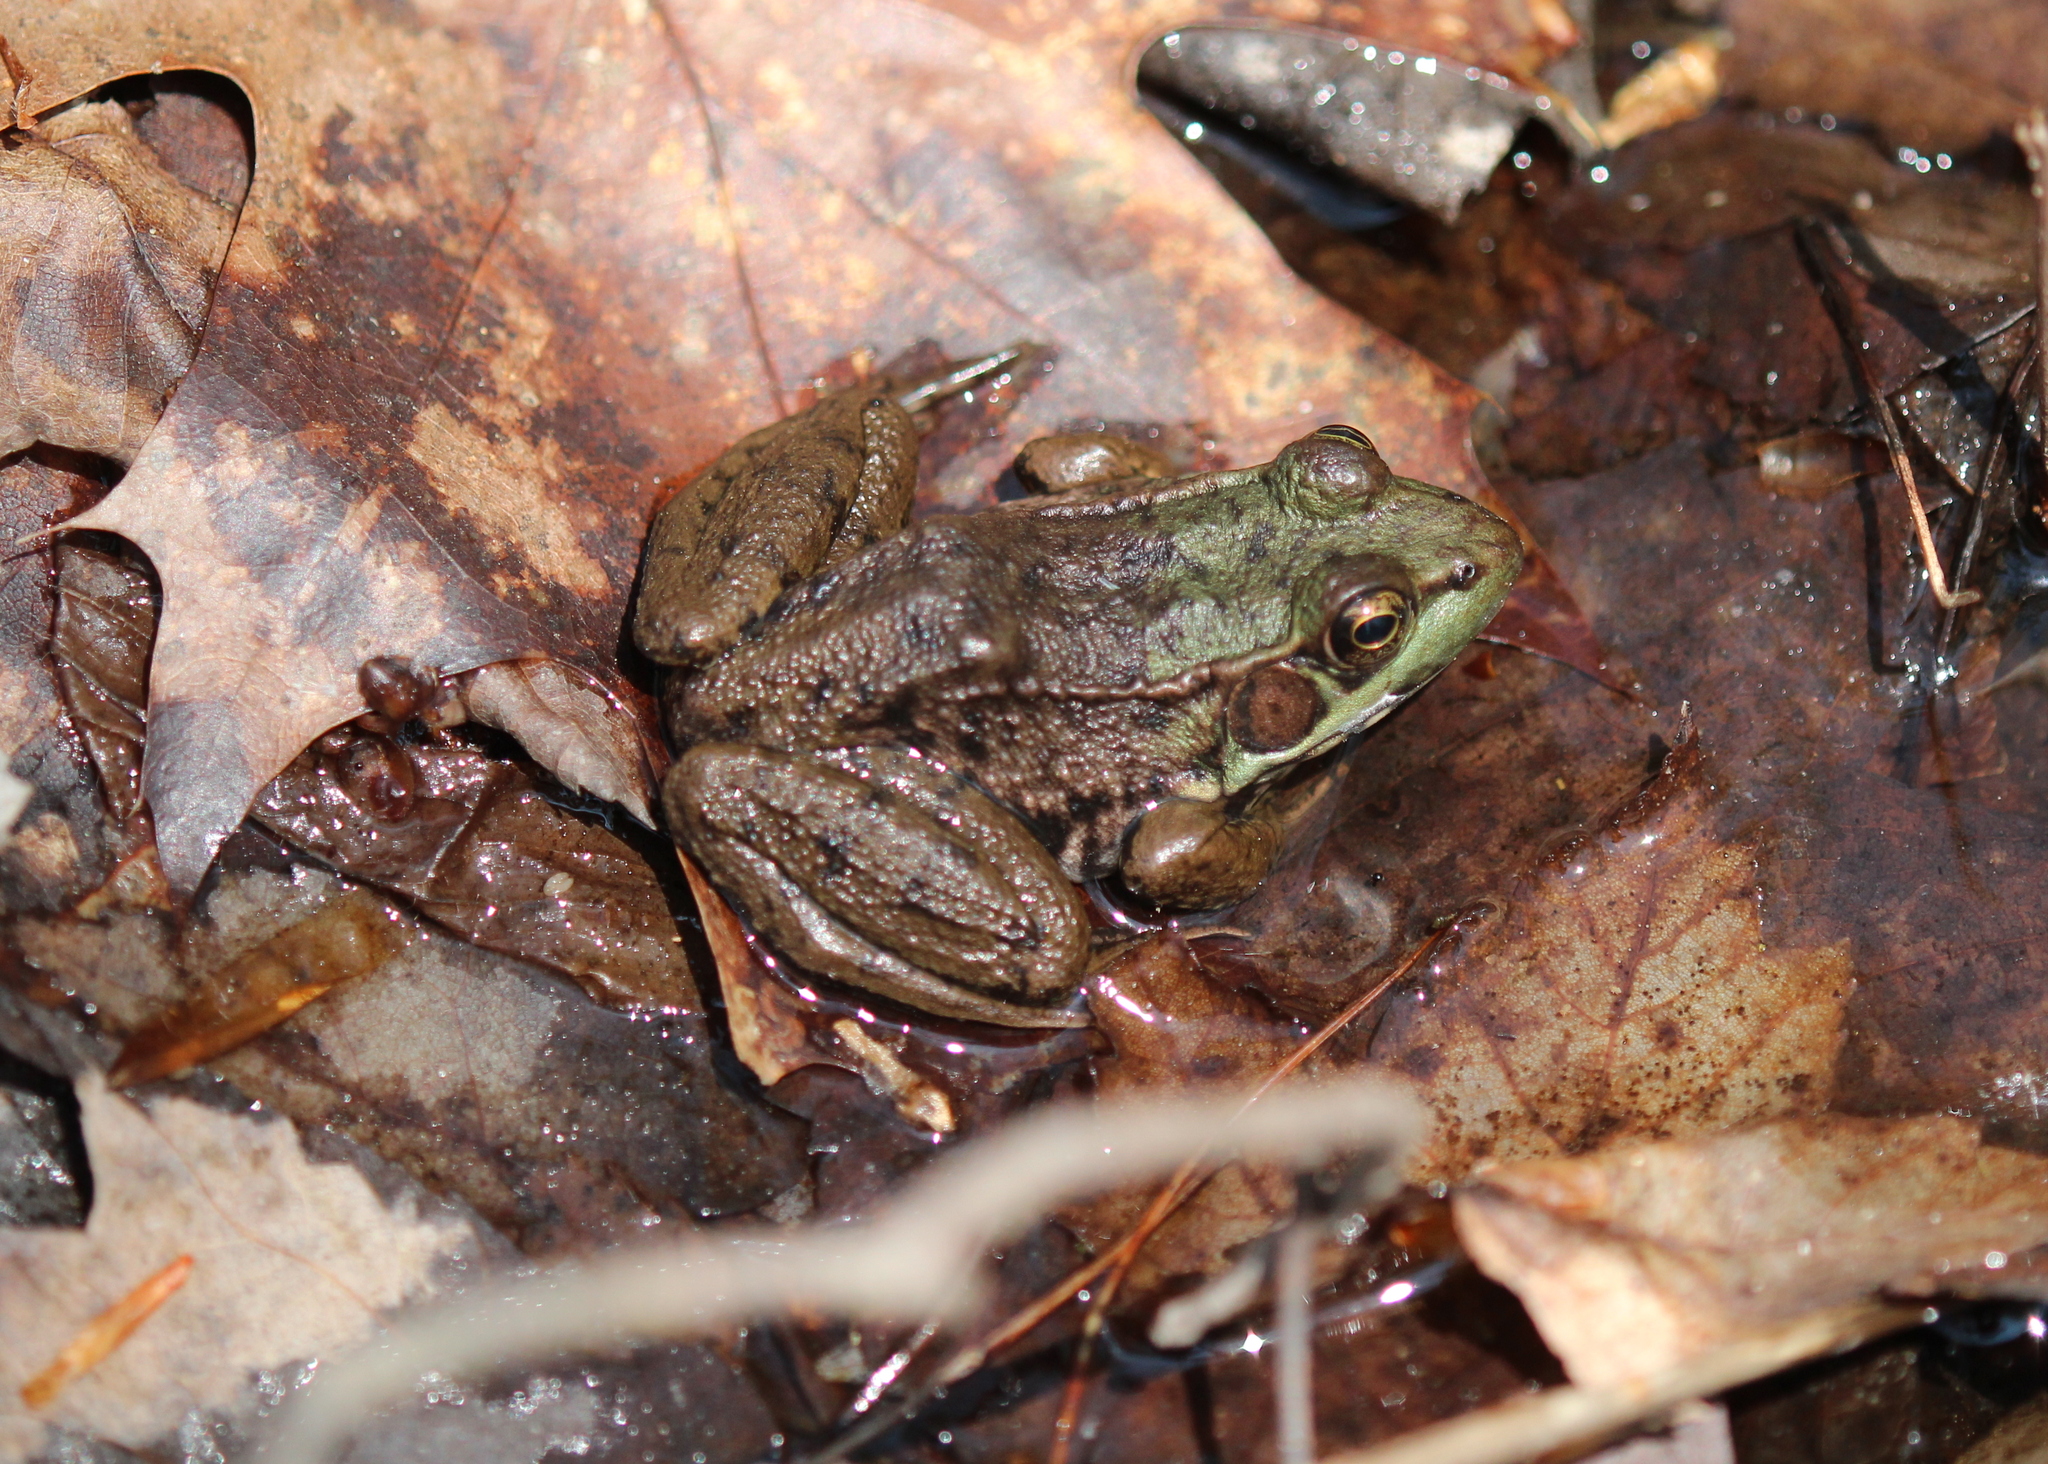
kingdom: Animalia
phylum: Chordata
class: Amphibia
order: Anura
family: Ranidae
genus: Lithobates
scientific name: Lithobates clamitans
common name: Green frog
